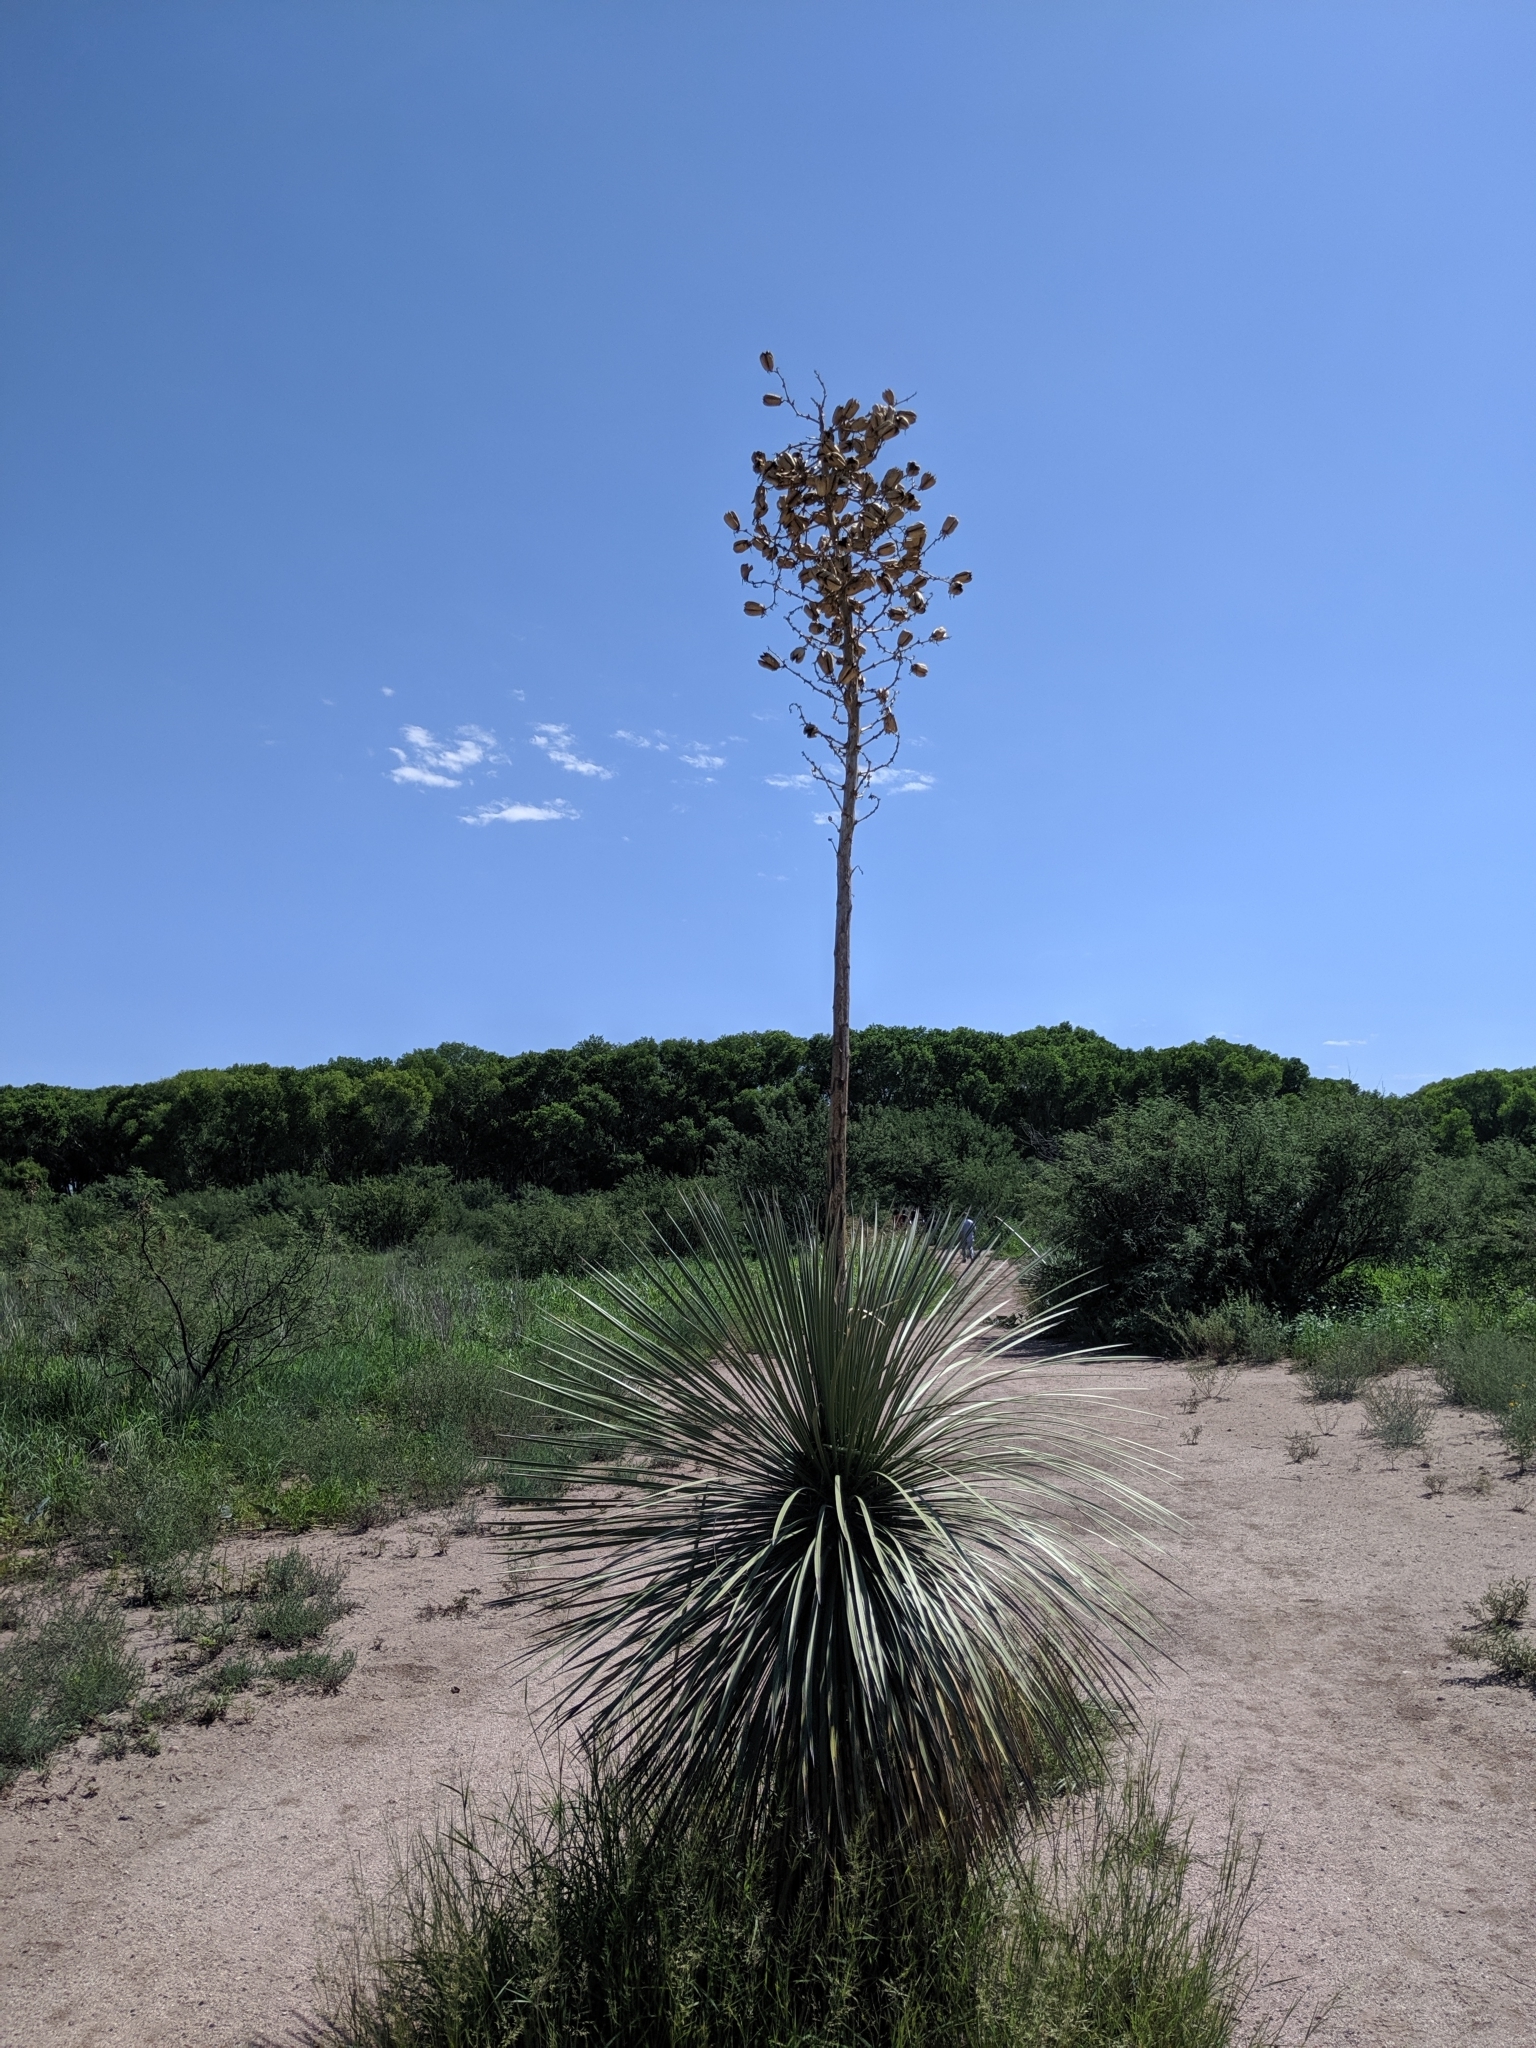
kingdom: Plantae
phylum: Tracheophyta
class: Liliopsida
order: Asparagales
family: Asparagaceae
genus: Yucca
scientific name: Yucca elata
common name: Palmella
